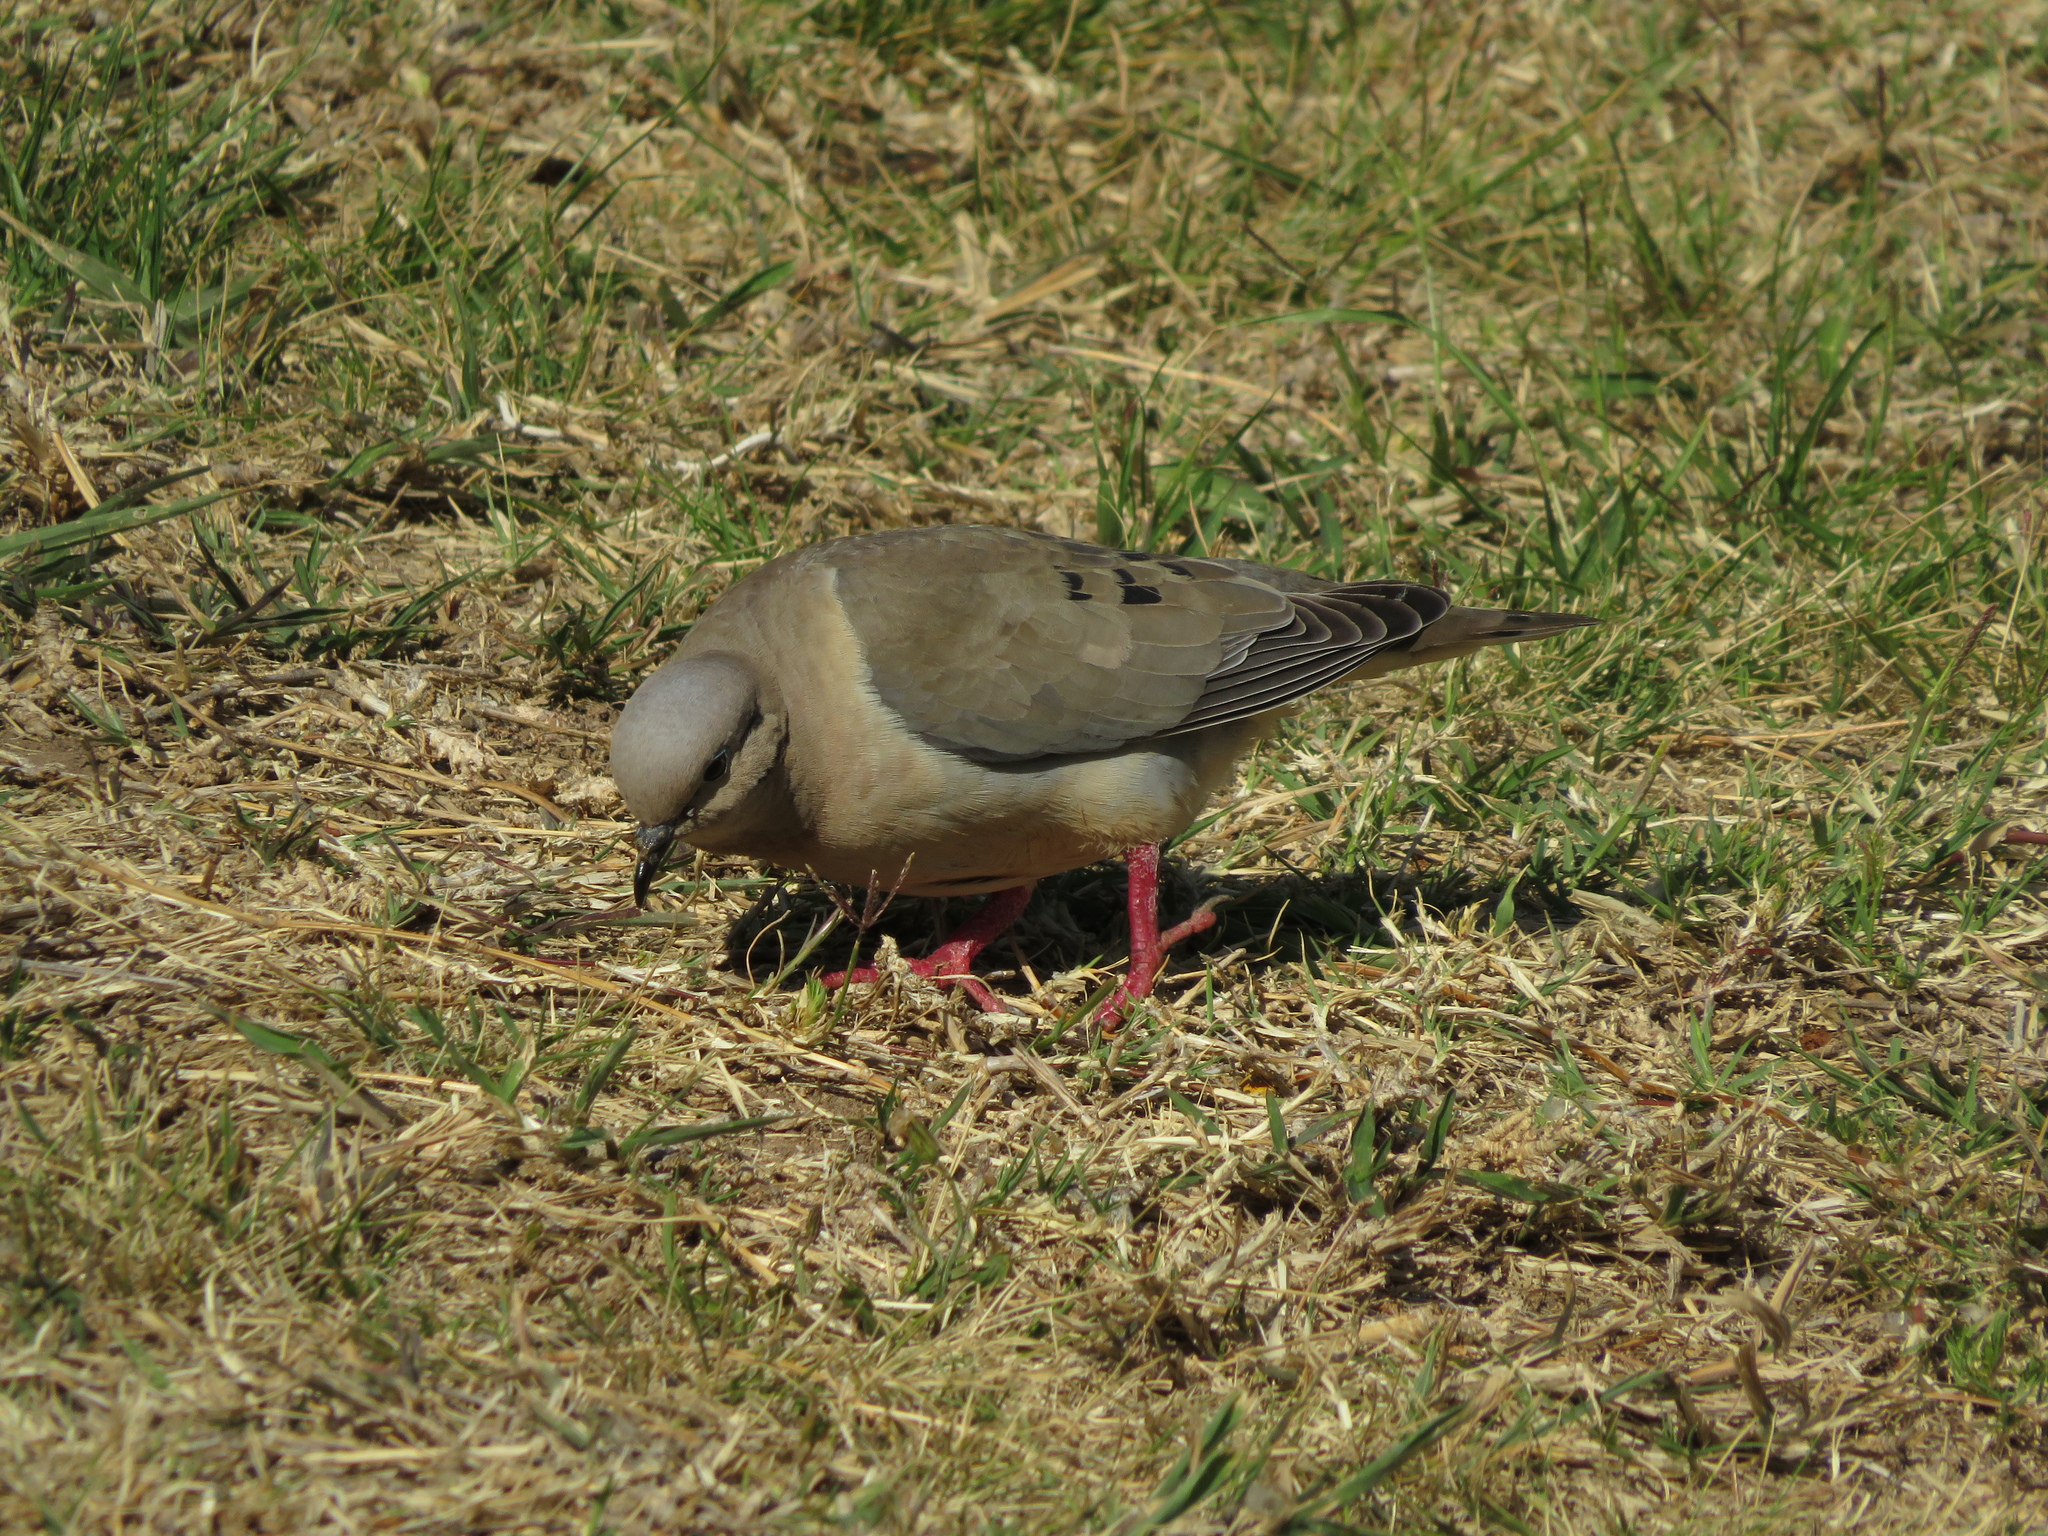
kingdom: Animalia
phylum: Chordata
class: Aves
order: Columbiformes
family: Columbidae
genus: Zenaida
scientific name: Zenaida auriculata
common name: Eared dove
